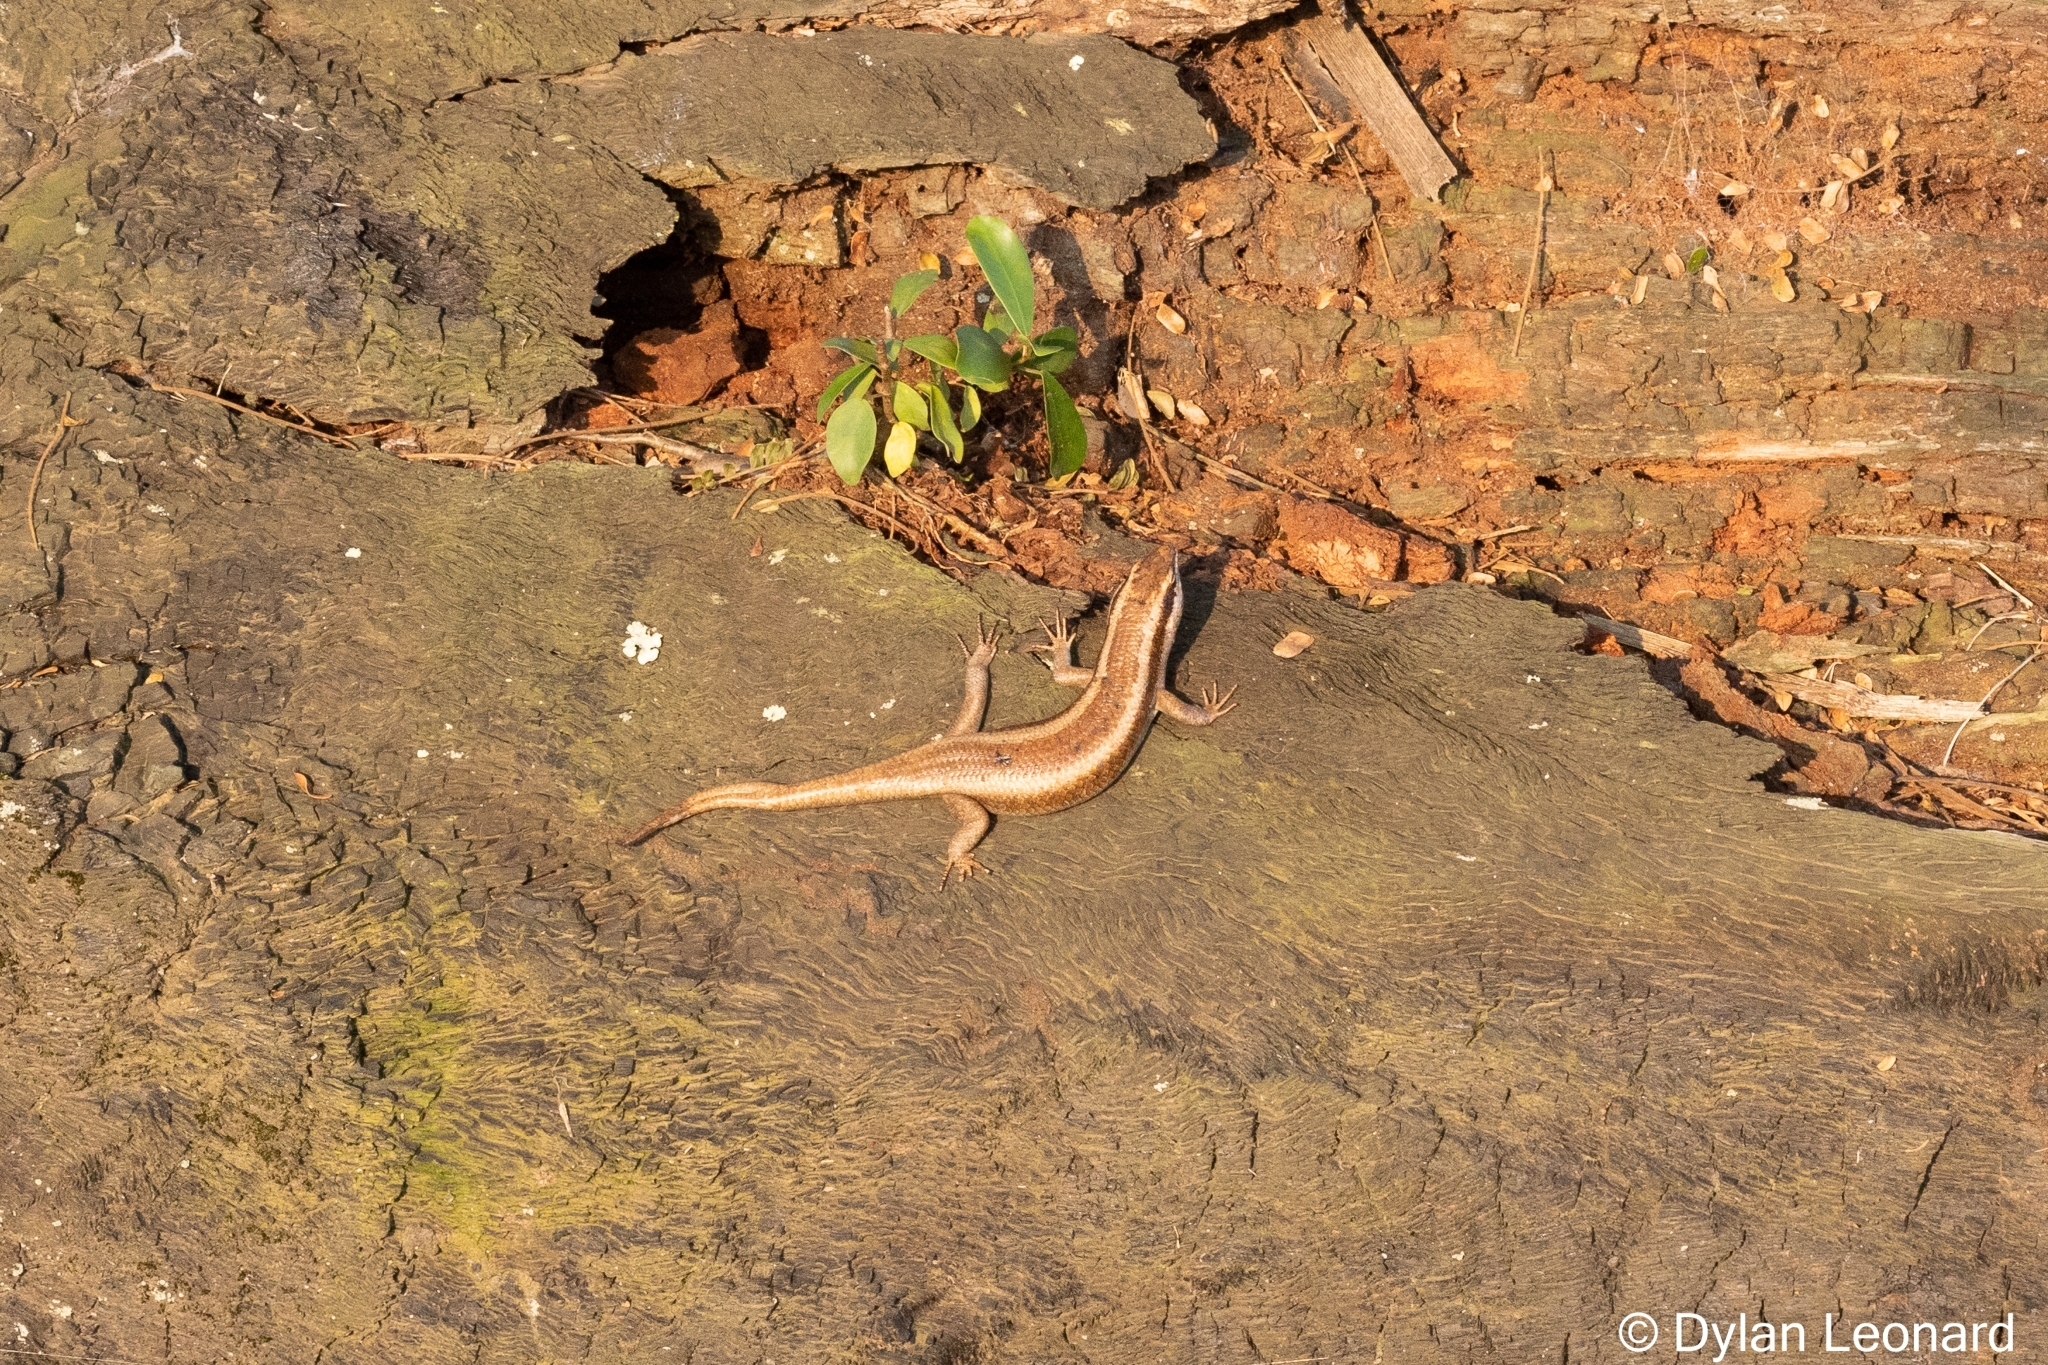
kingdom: Animalia
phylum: Chordata
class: Squamata
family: Scincidae
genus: Trachylepis
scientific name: Trachylepis striata
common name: African striped mabuya
